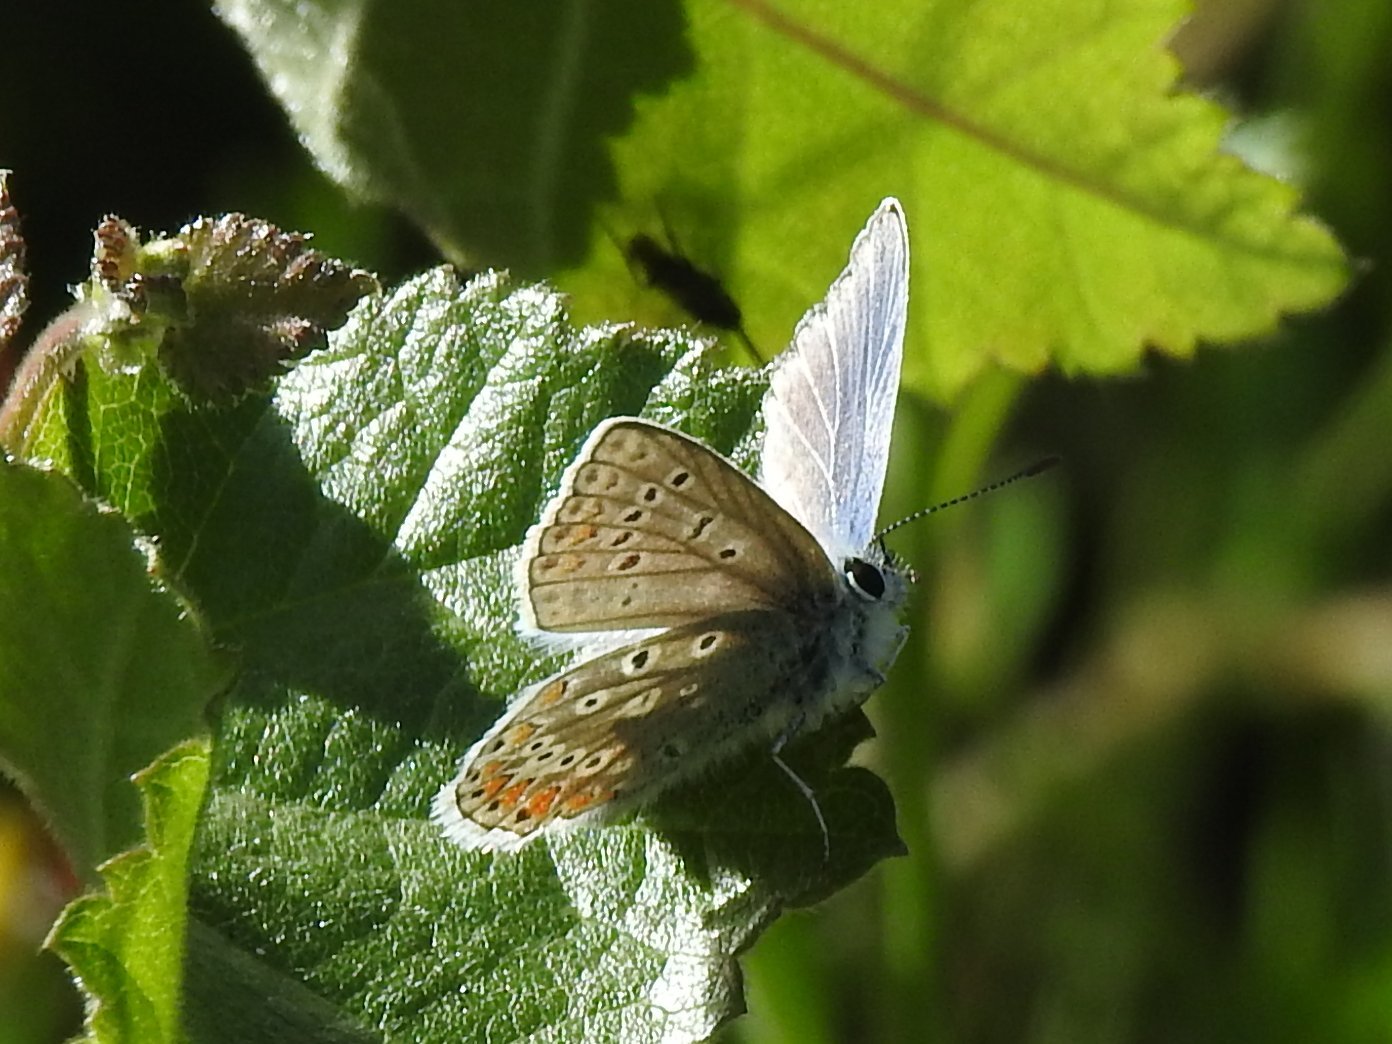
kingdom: Animalia
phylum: Arthropoda
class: Insecta
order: Lepidoptera
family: Lycaenidae
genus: Polyommatus
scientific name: Polyommatus icarus
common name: Common blue
